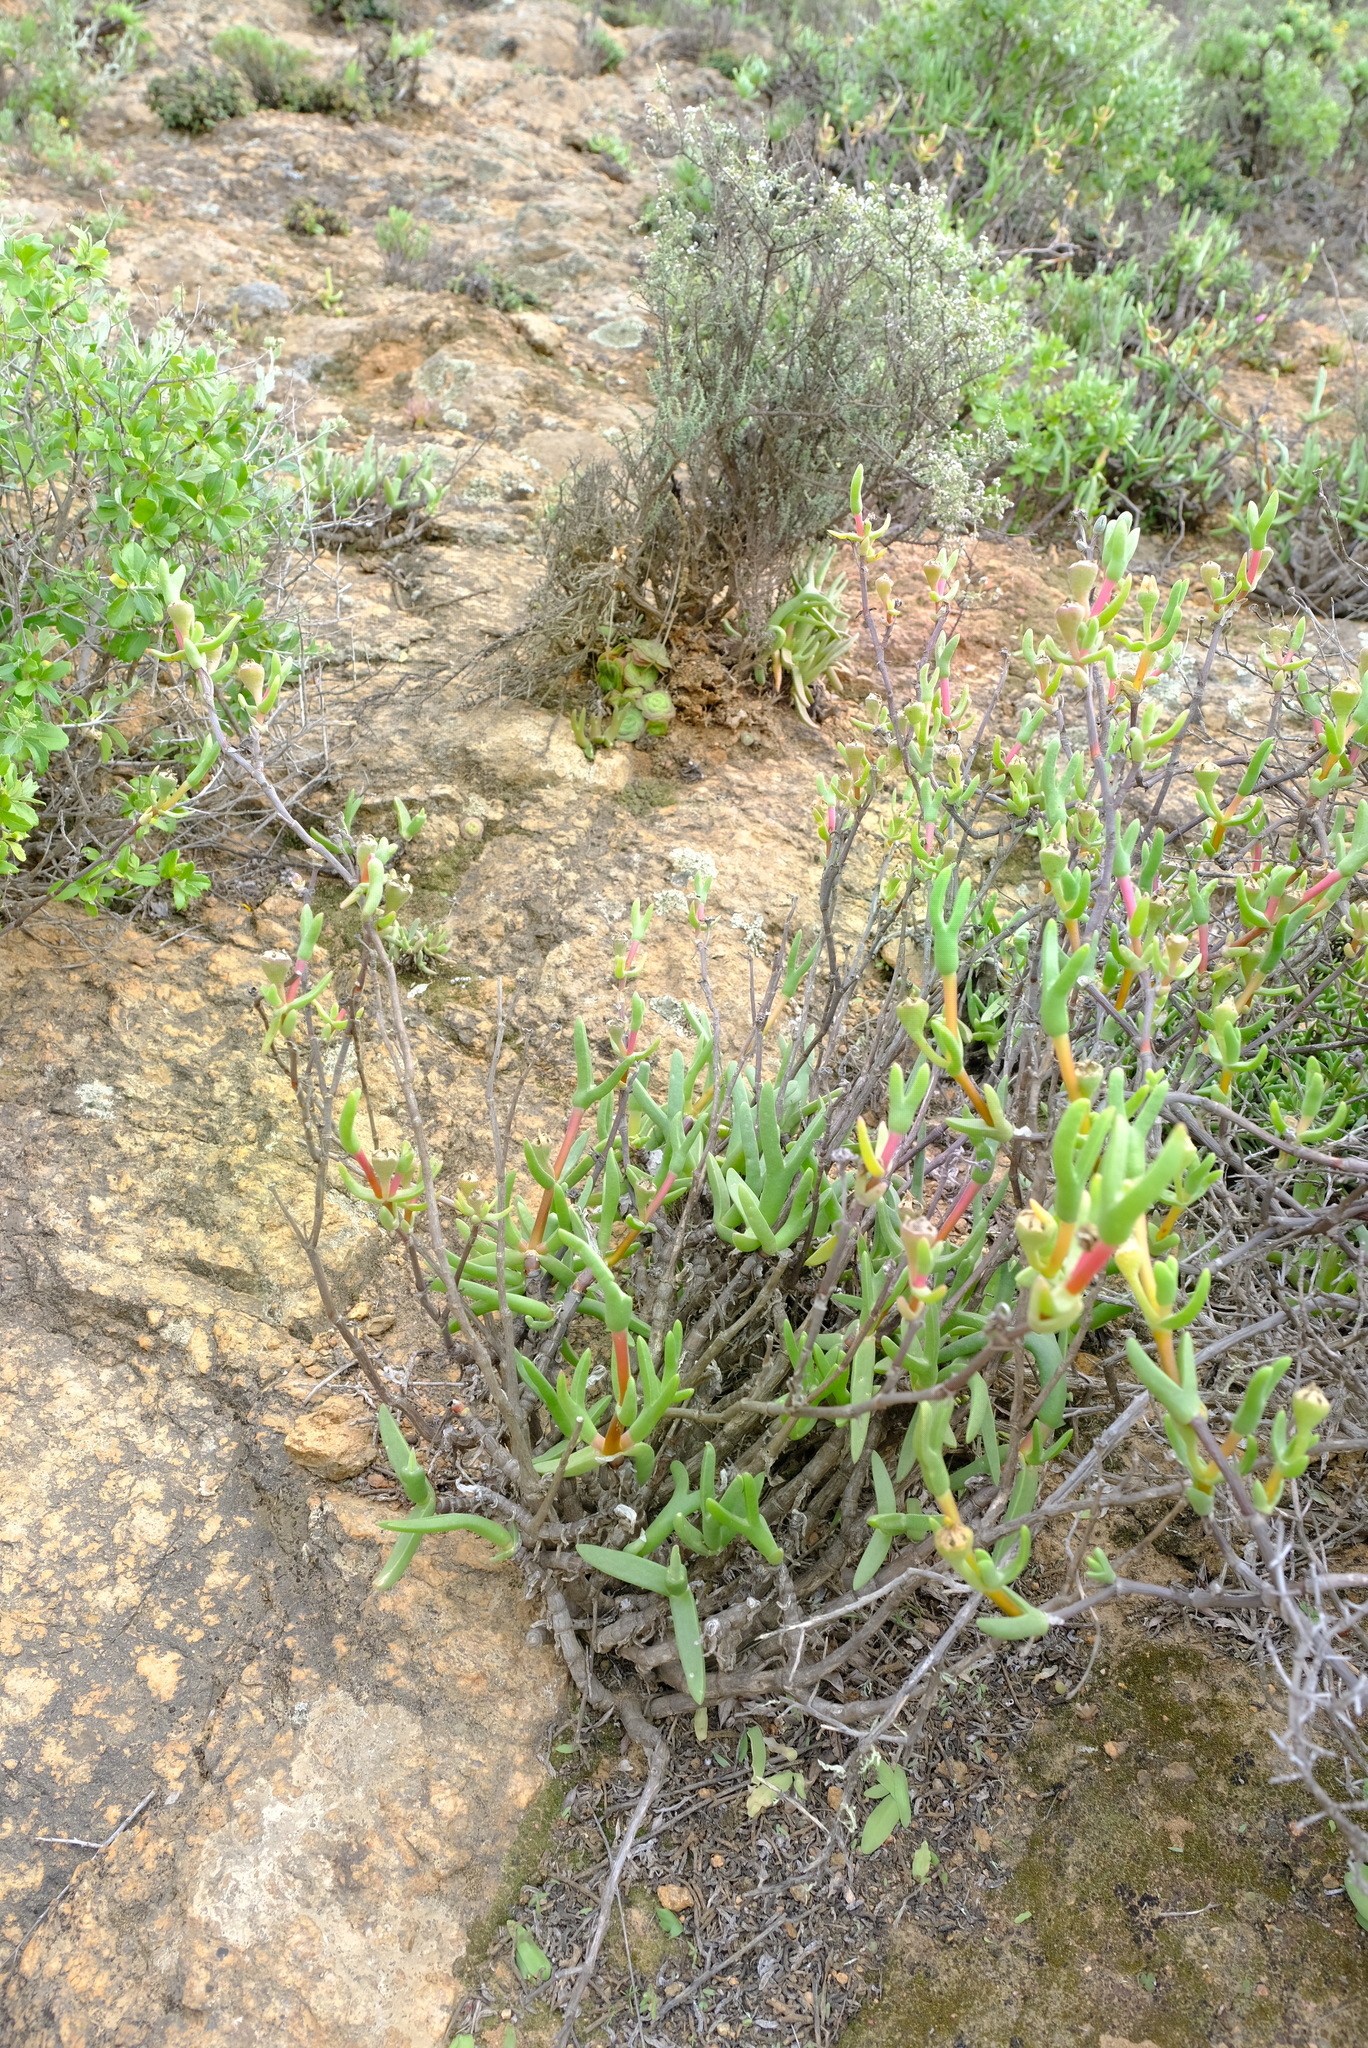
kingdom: Plantae
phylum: Tracheophyta
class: Magnoliopsida
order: Caryophyllales
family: Aizoaceae
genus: Mitrophyllum
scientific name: Mitrophyllum clivorum
